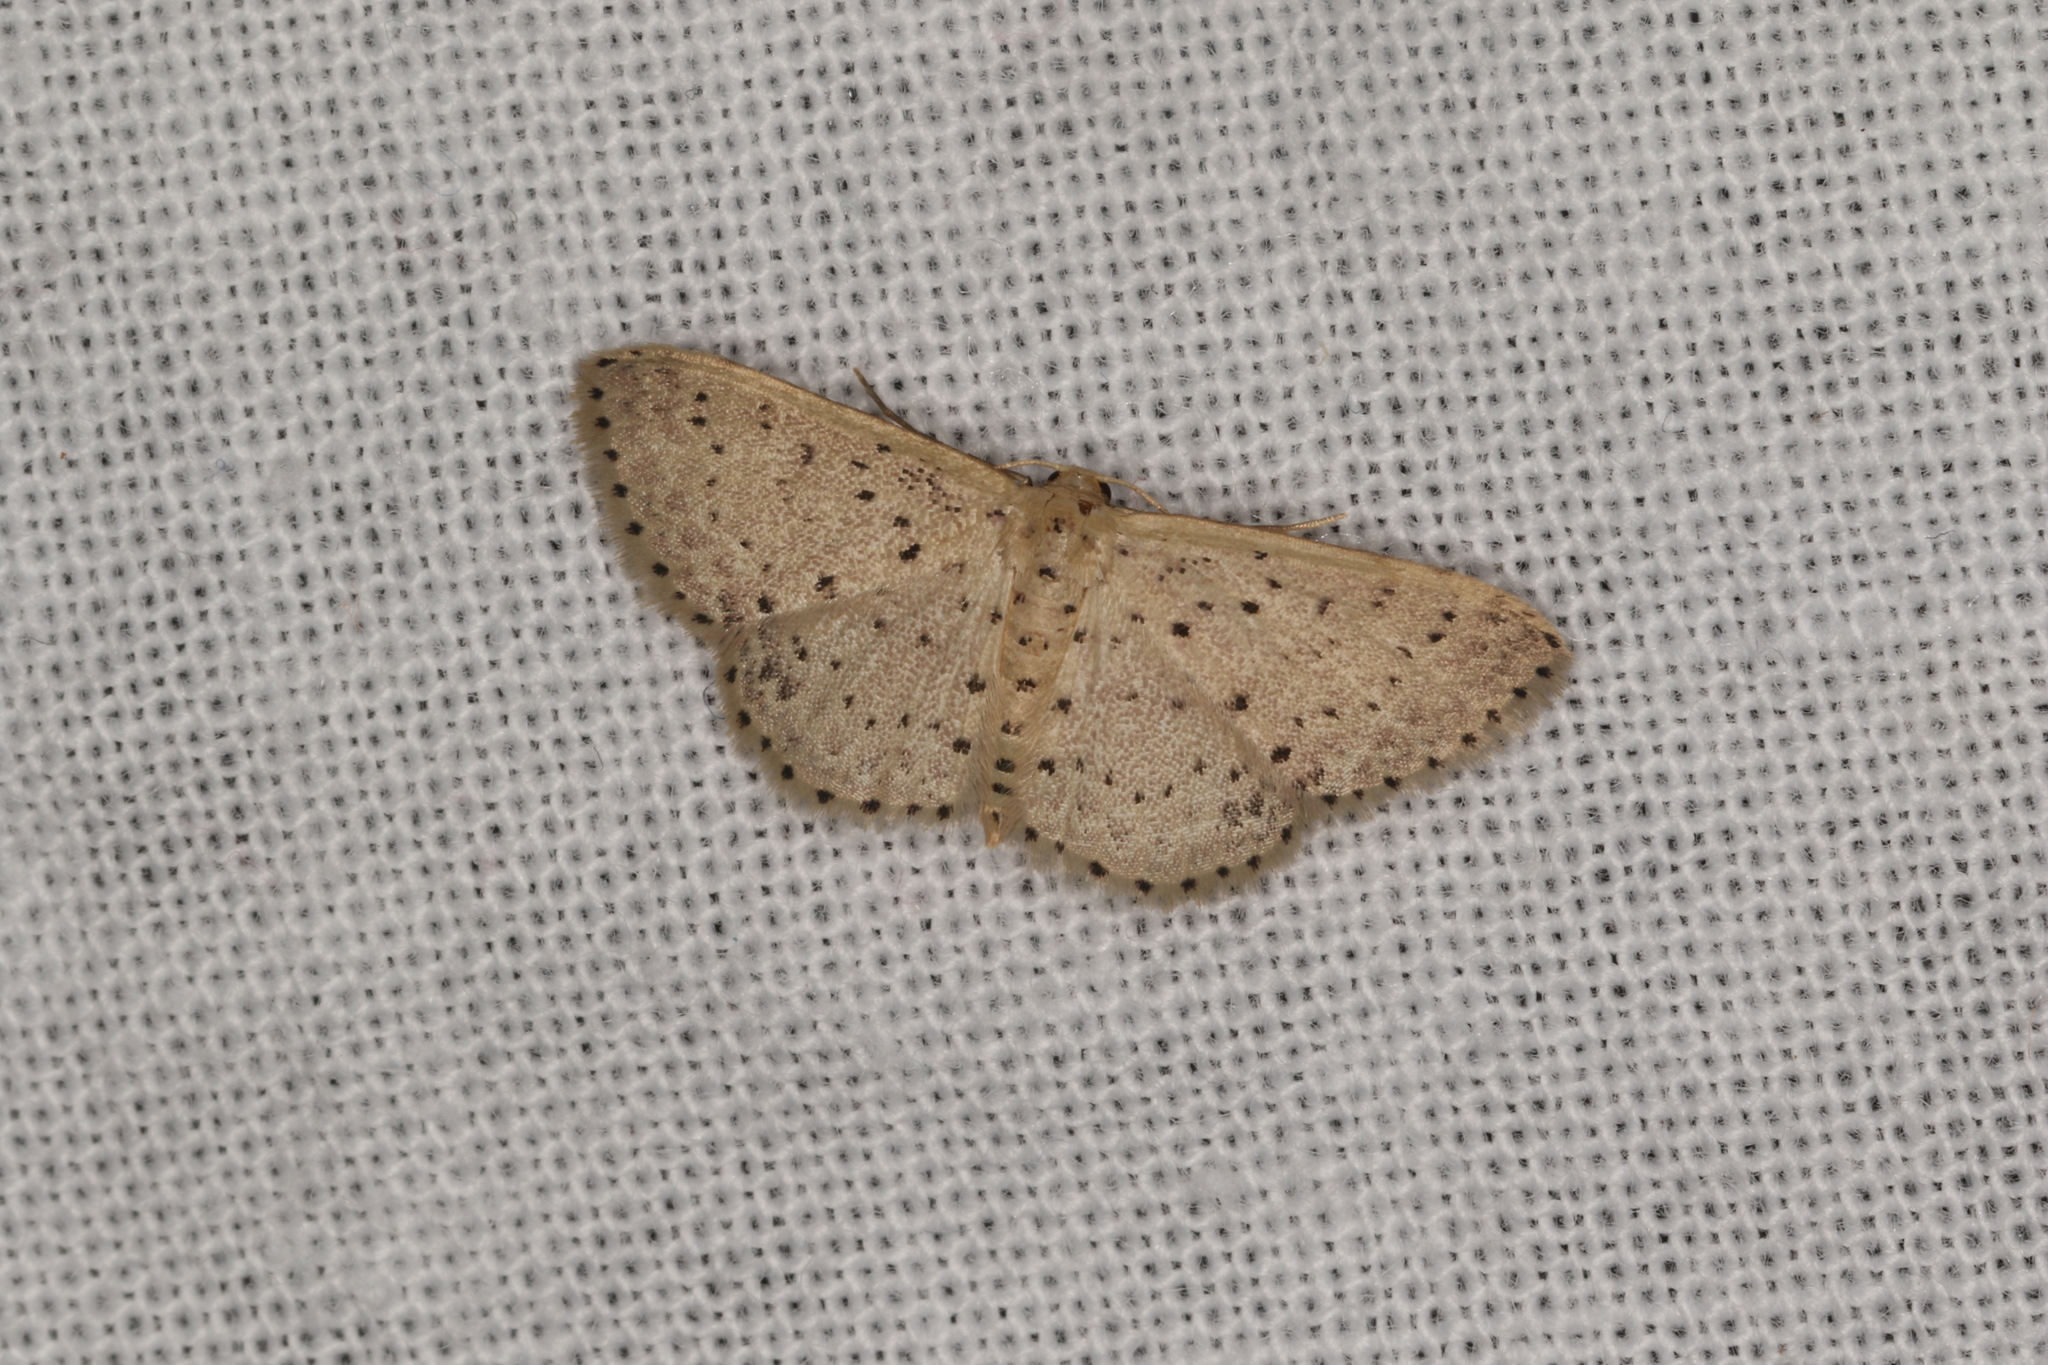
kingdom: Animalia
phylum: Arthropoda
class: Insecta
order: Lepidoptera
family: Geometridae
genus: Idaea
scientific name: Idaea punctatissima
